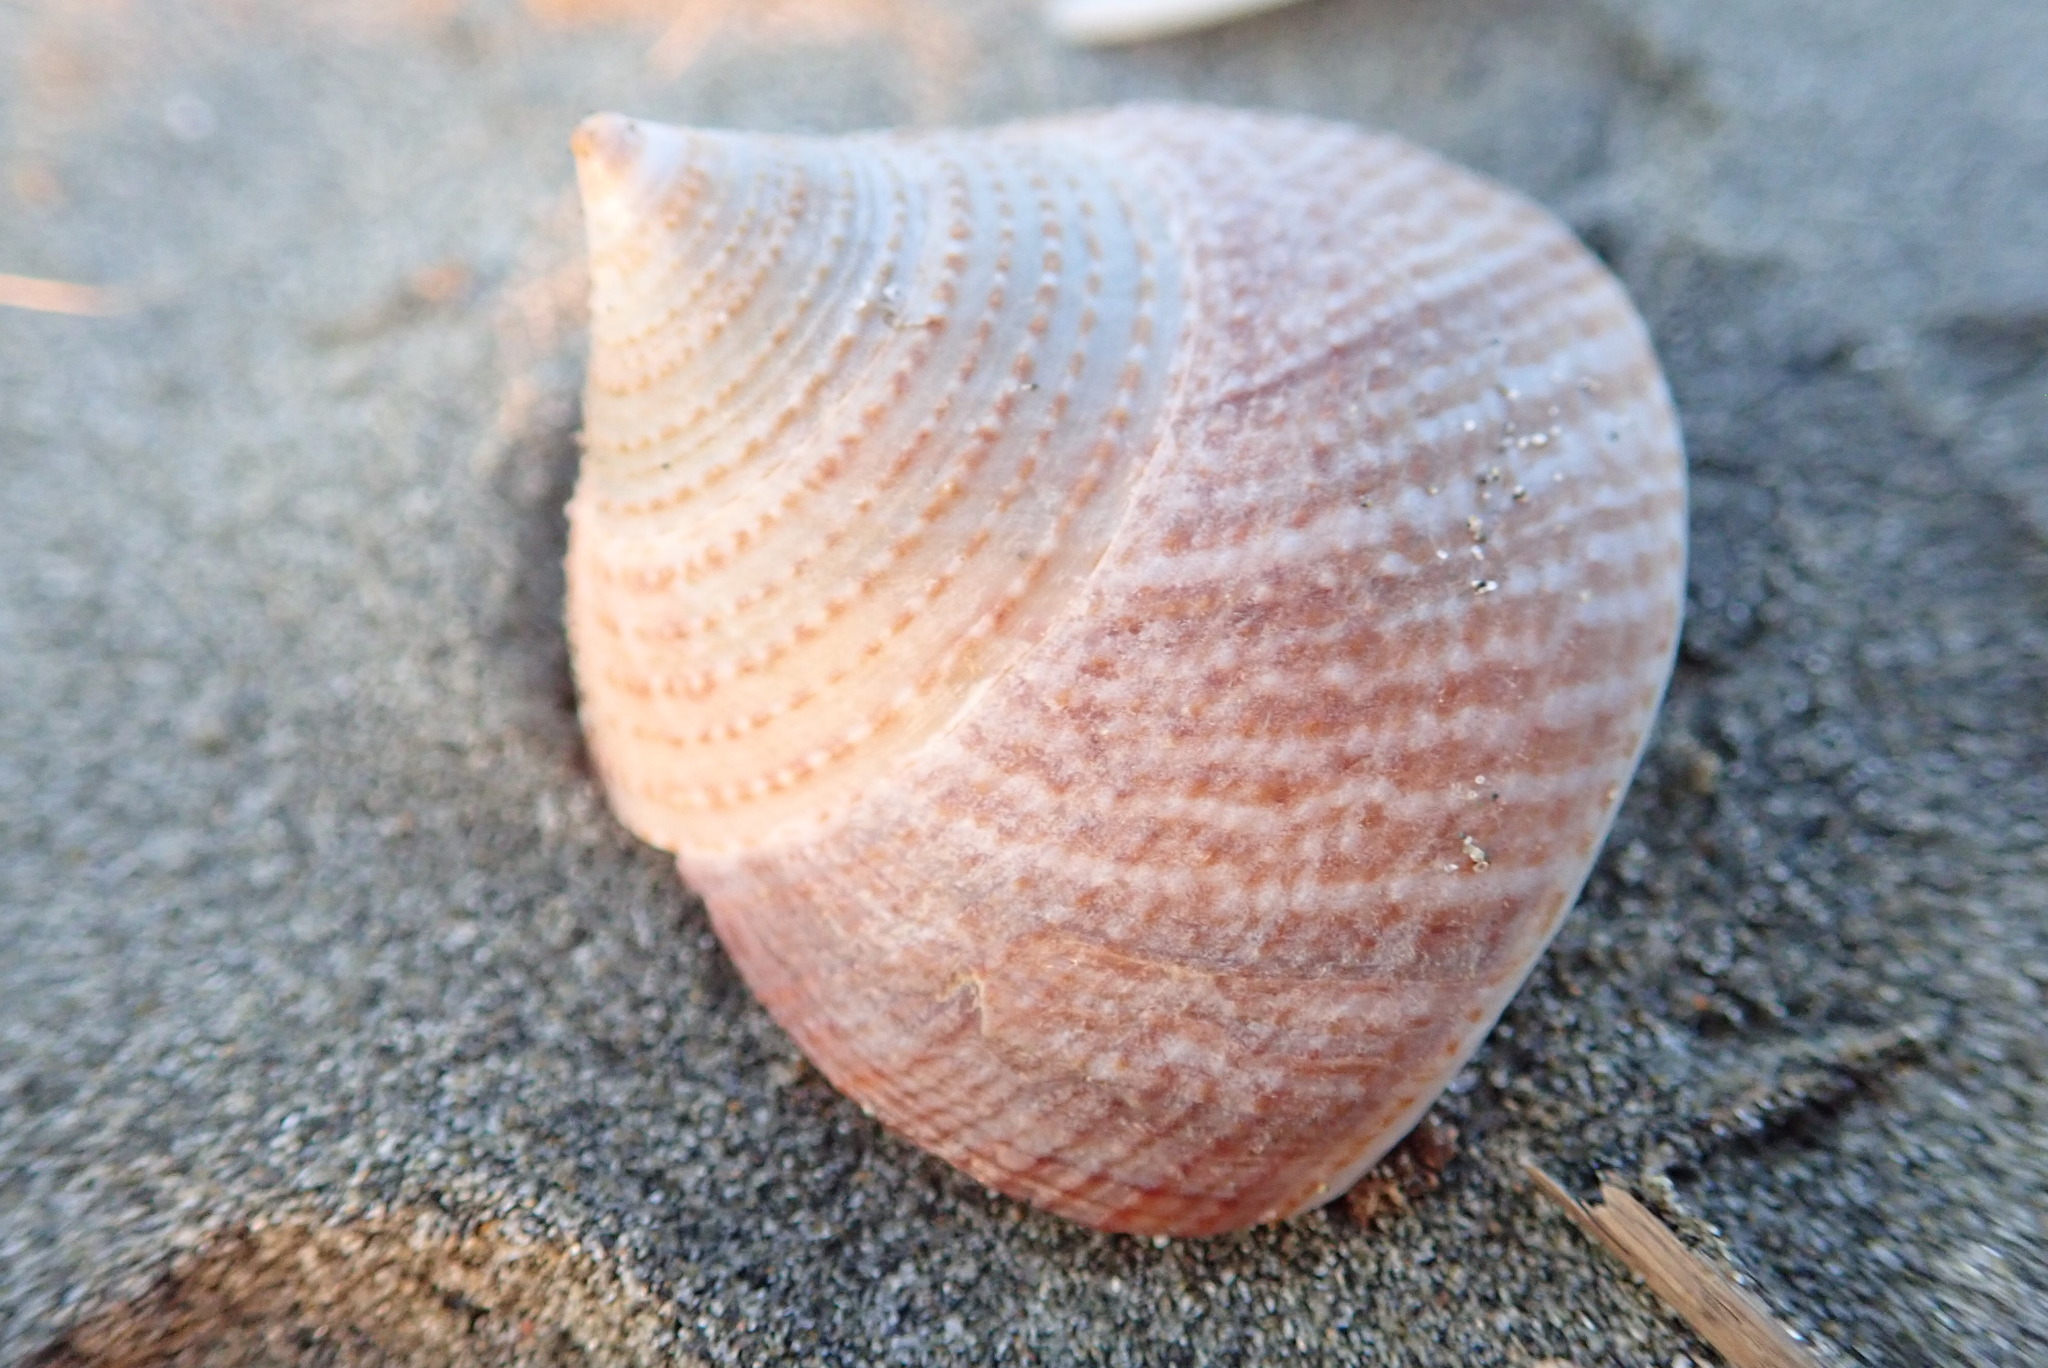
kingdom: Animalia
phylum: Mollusca
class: Gastropoda
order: Trochida
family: Calliostomatidae
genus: Maurea
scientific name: Maurea selecta
